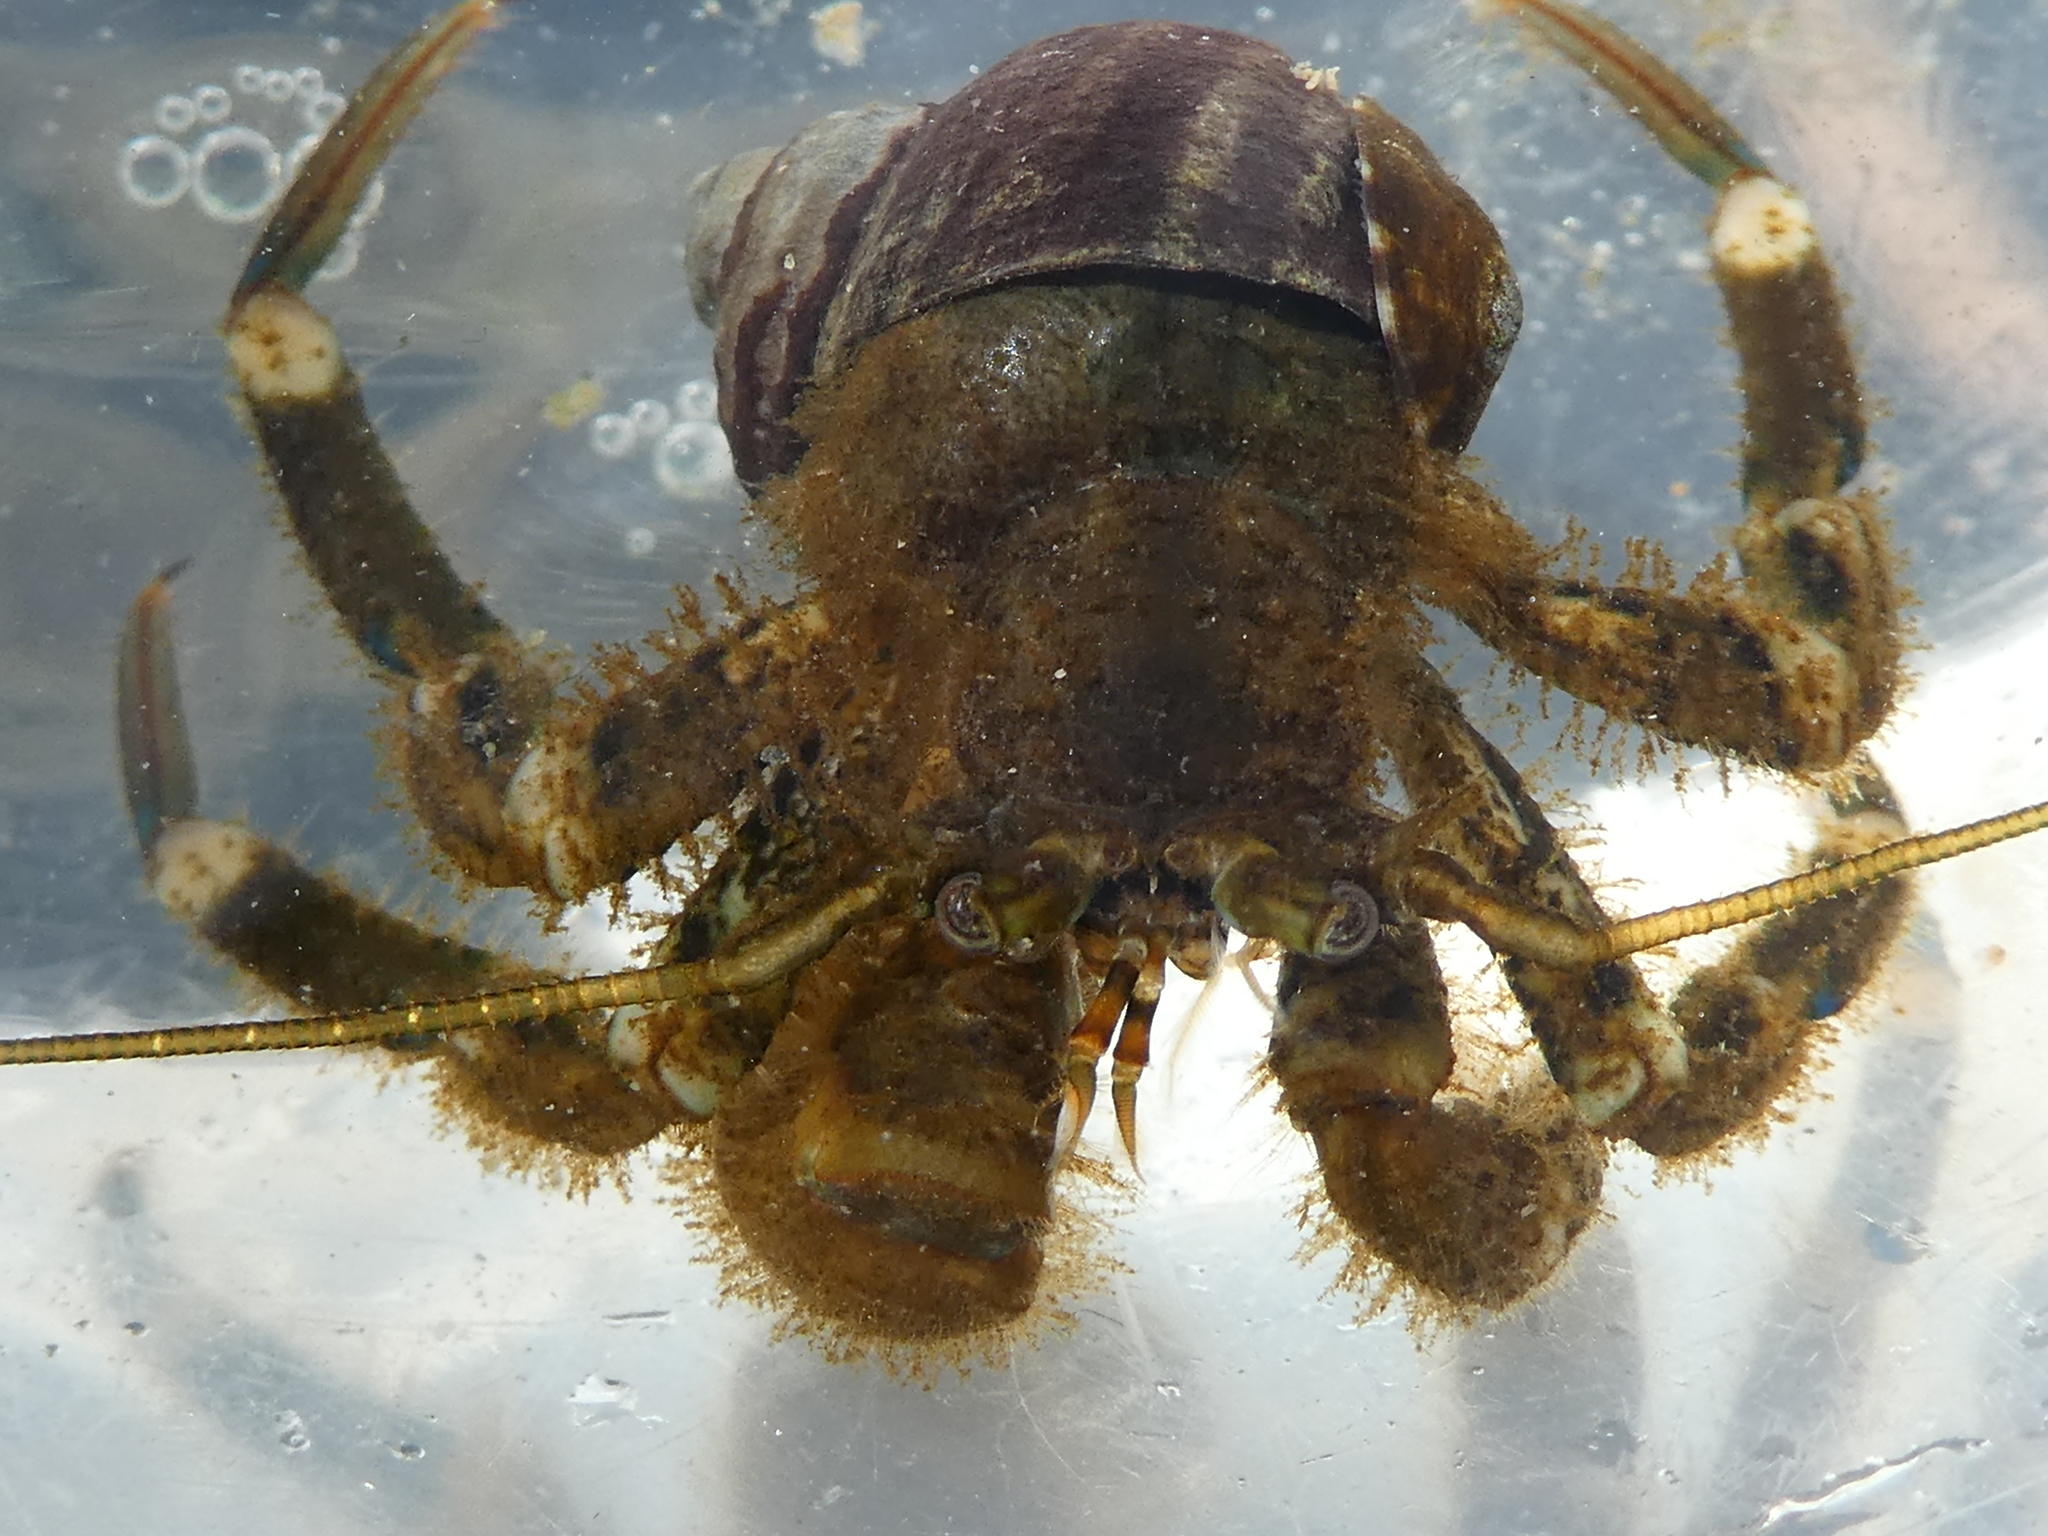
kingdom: Animalia
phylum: Arthropoda
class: Malacostraca
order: Decapoda
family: Paguridae
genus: Pagurus
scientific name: Pagurus hirsutiusculus
